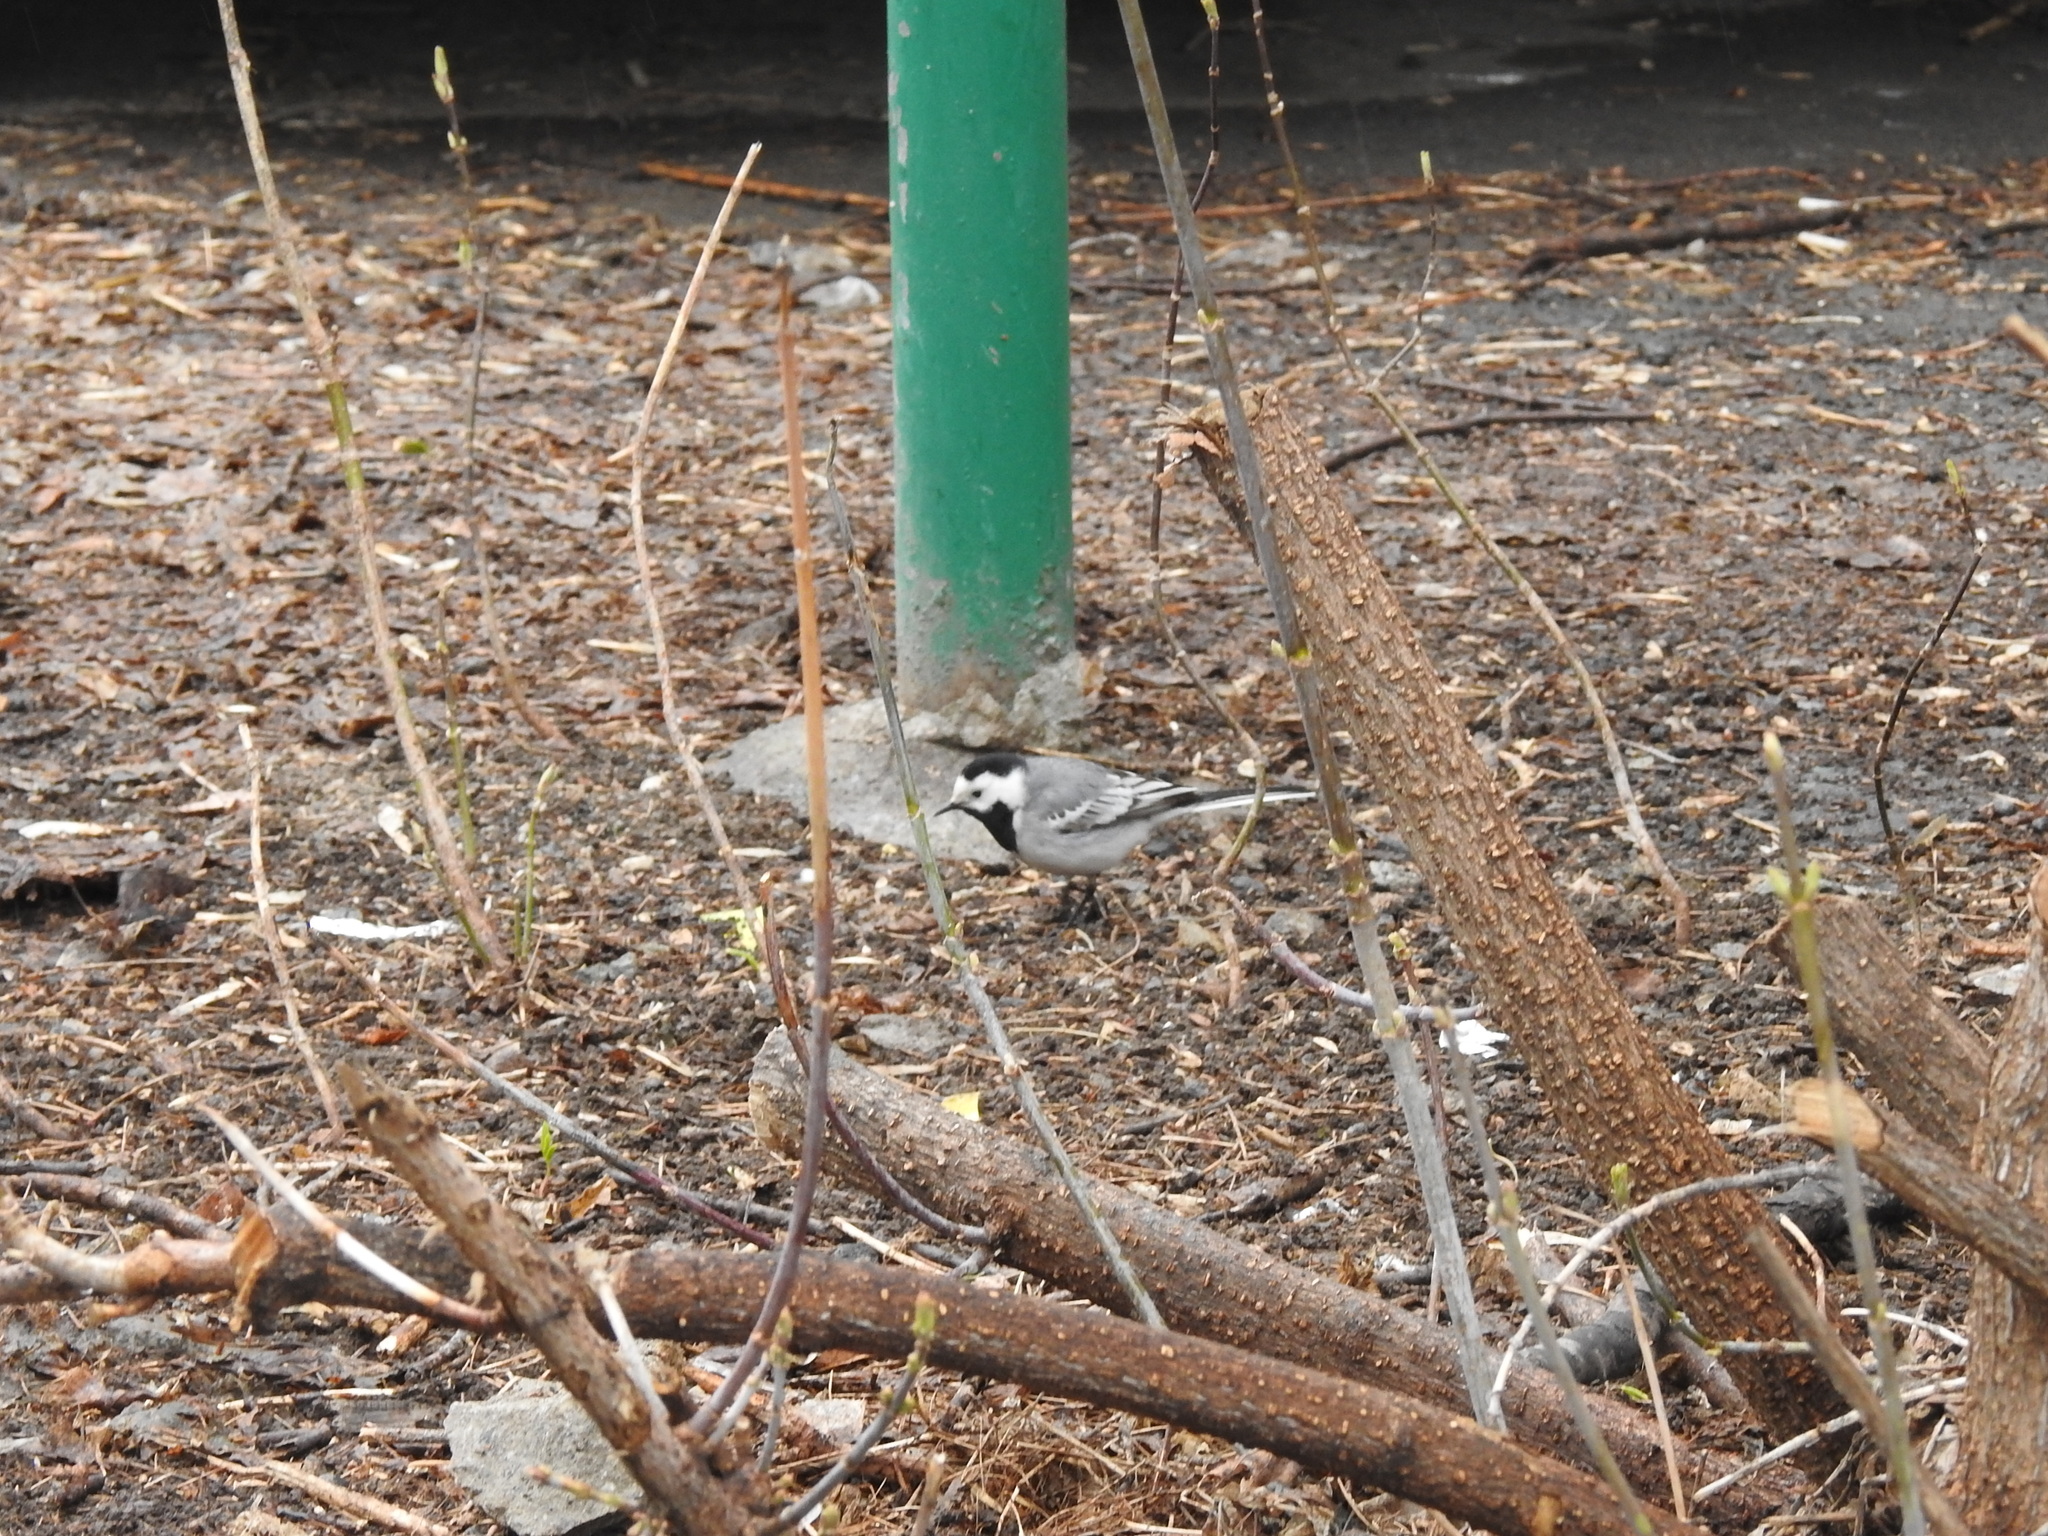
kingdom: Animalia
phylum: Chordata
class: Aves
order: Passeriformes
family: Motacillidae
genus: Motacilla
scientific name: Motacilla alba
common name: White wagtail
